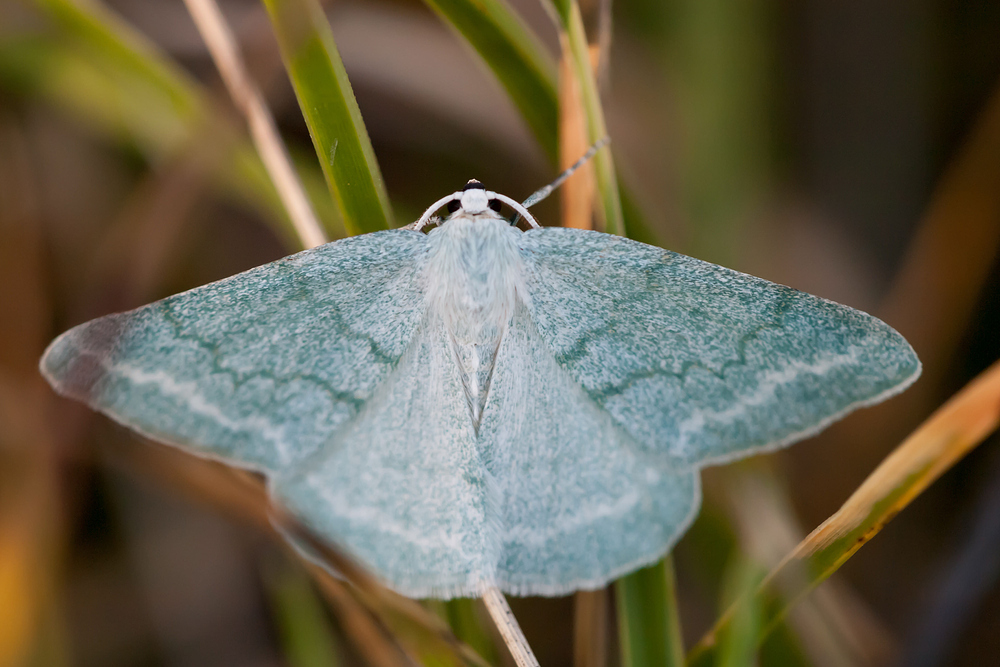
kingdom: Animalia
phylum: Arthropoda
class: Insecta
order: Lepidoptera
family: Geometridae
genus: Pseudoterpna
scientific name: Pseudoterpna pruinata
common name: Grass emerald
